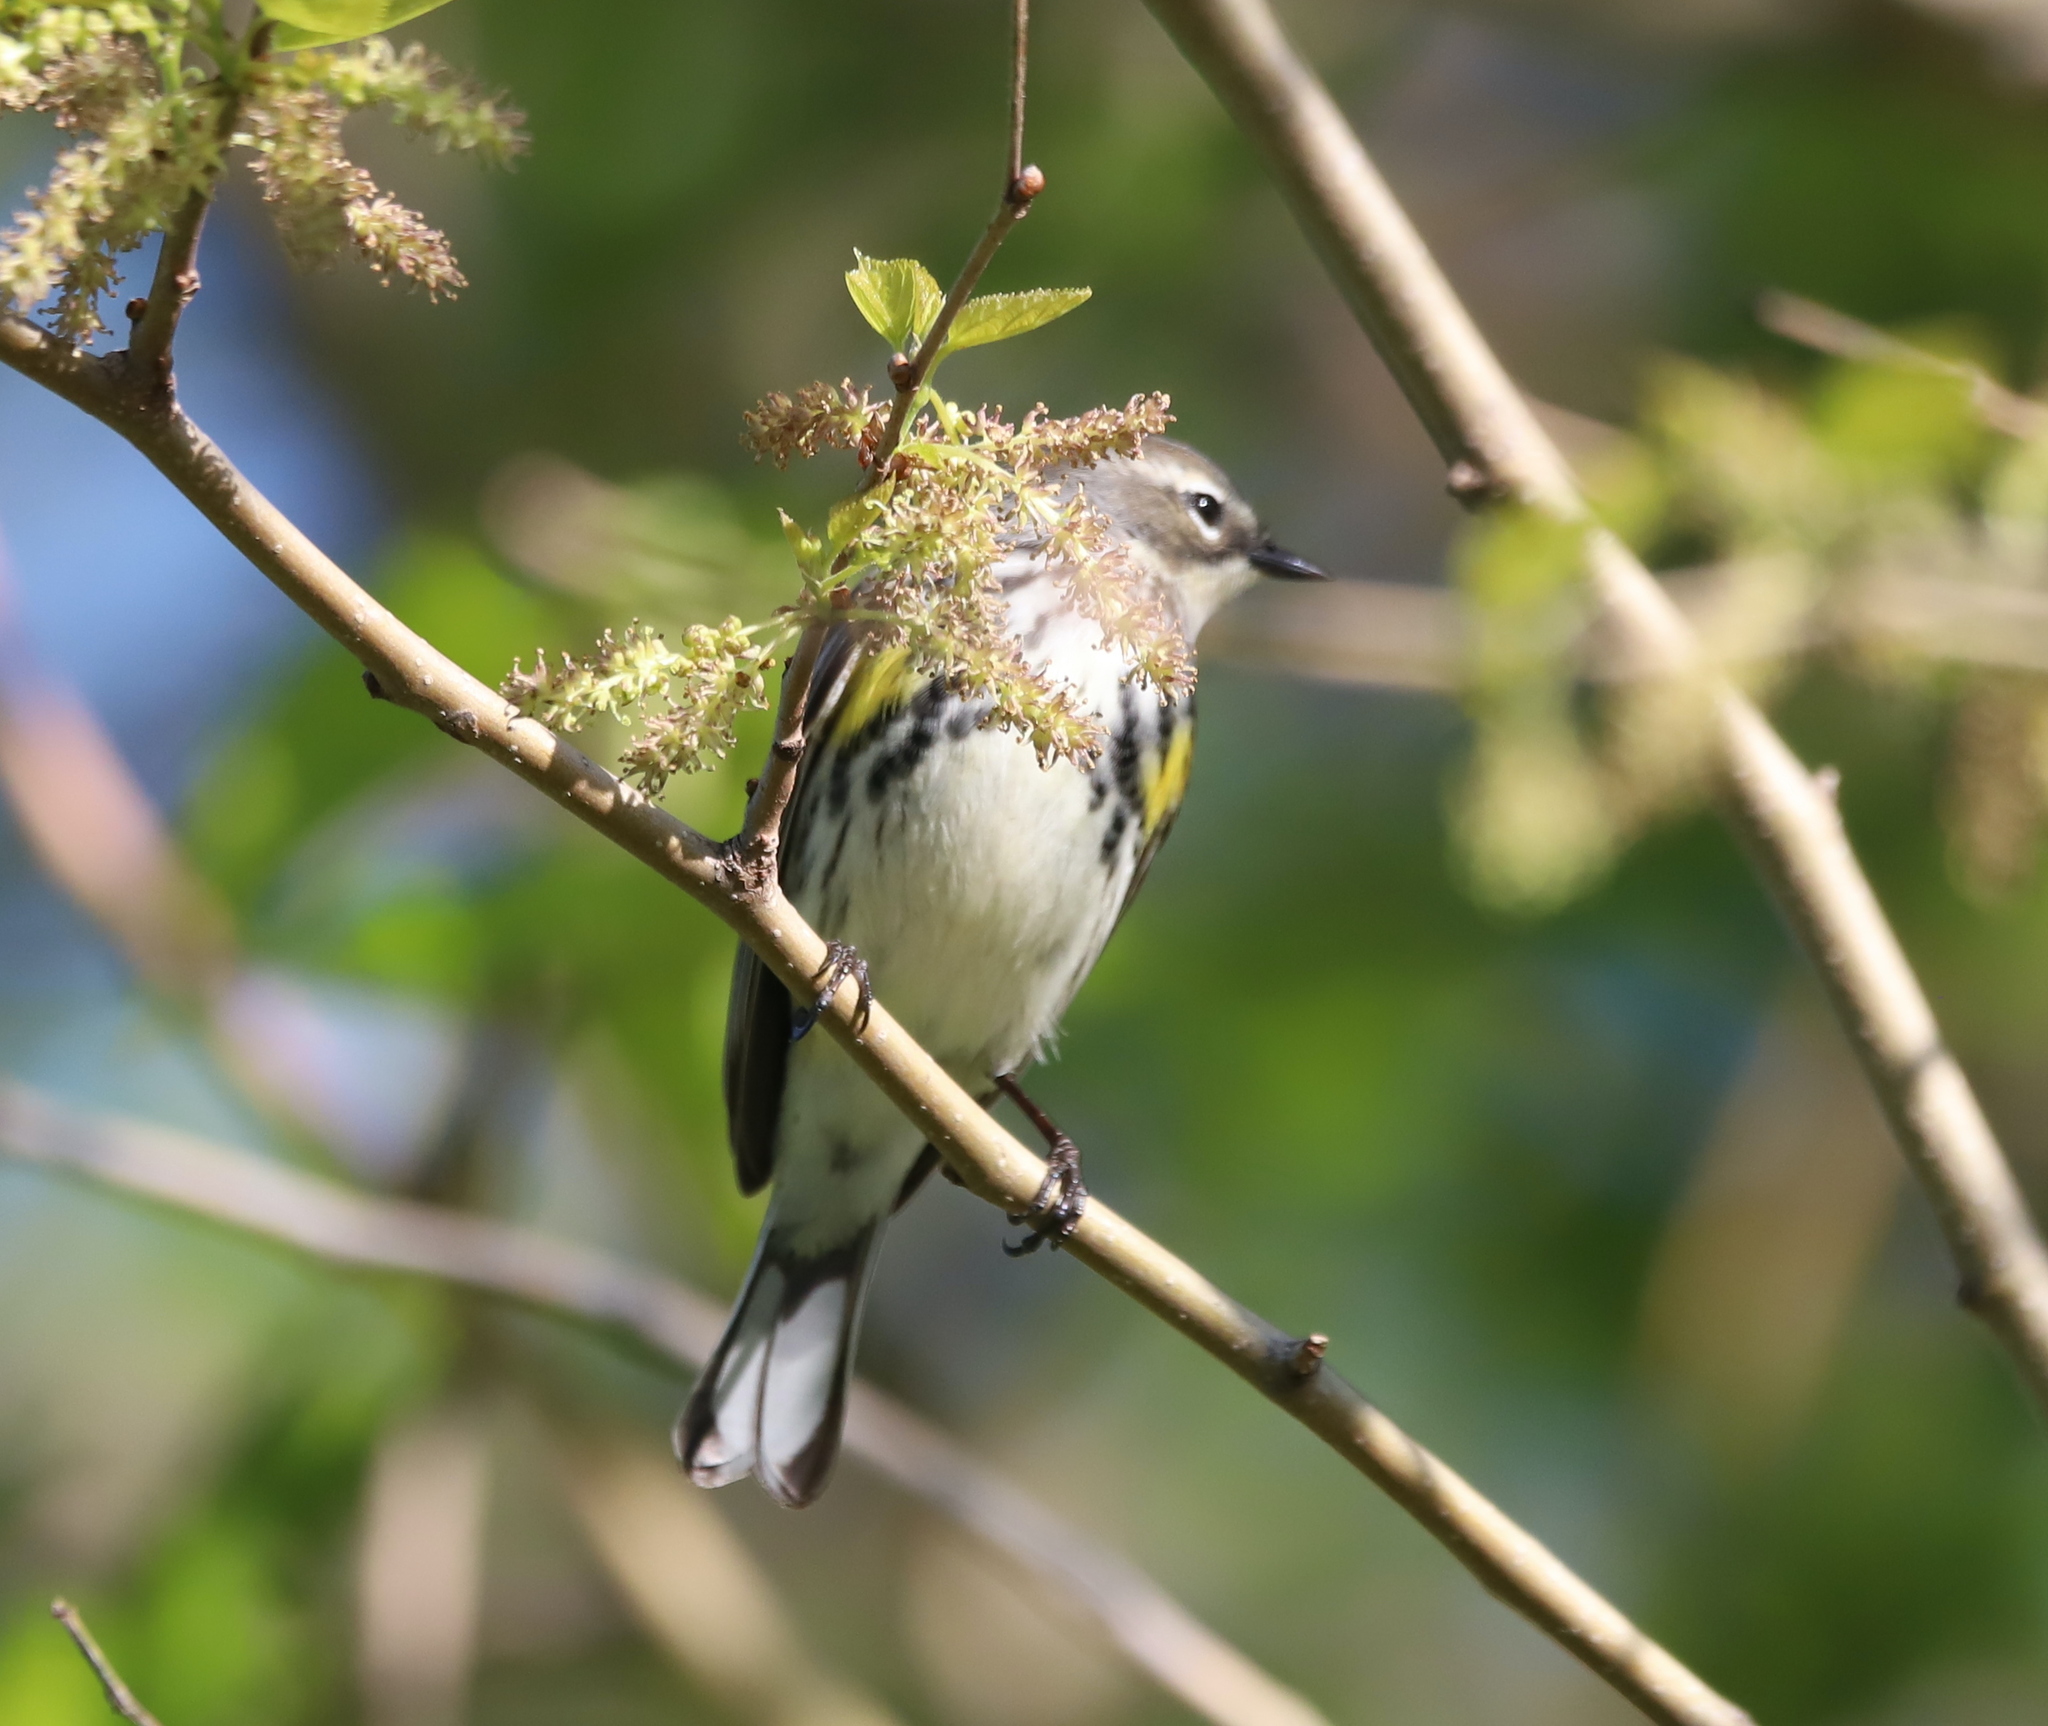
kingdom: Animalia
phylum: Chordata
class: Aves
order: Passeriformes
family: Parulidae
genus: Setophaga
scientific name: Setophaga coronata
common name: Myrtle warbler
